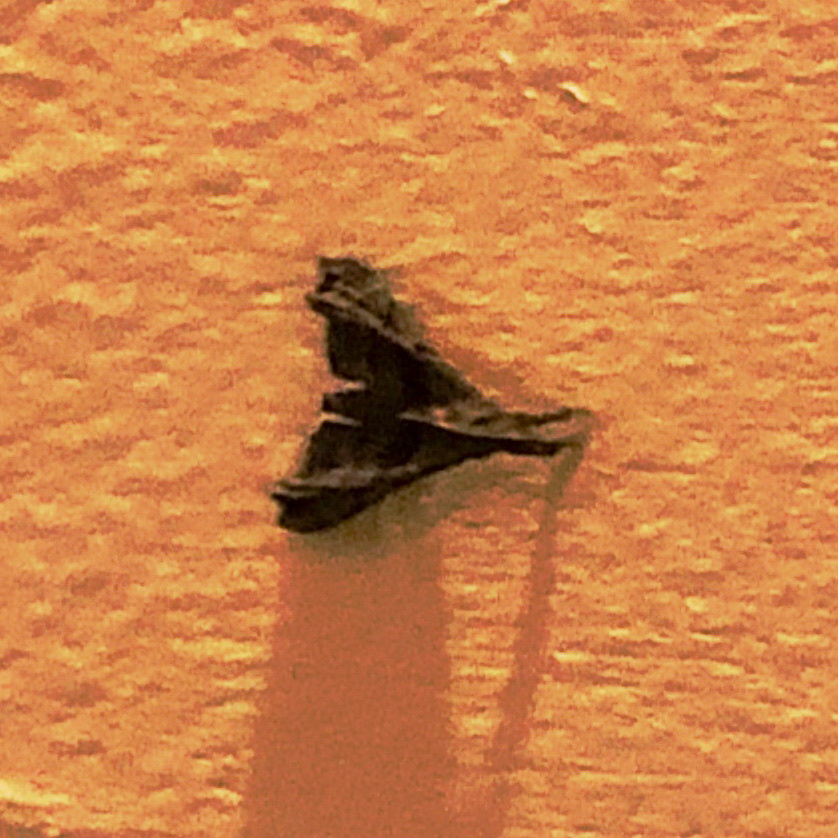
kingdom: Animalia
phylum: Arthropoda
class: Insecta
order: Lepidoptera
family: Erebidae
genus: Palthis
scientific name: Palthis asopialis
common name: Faint-spotted palthis moth
